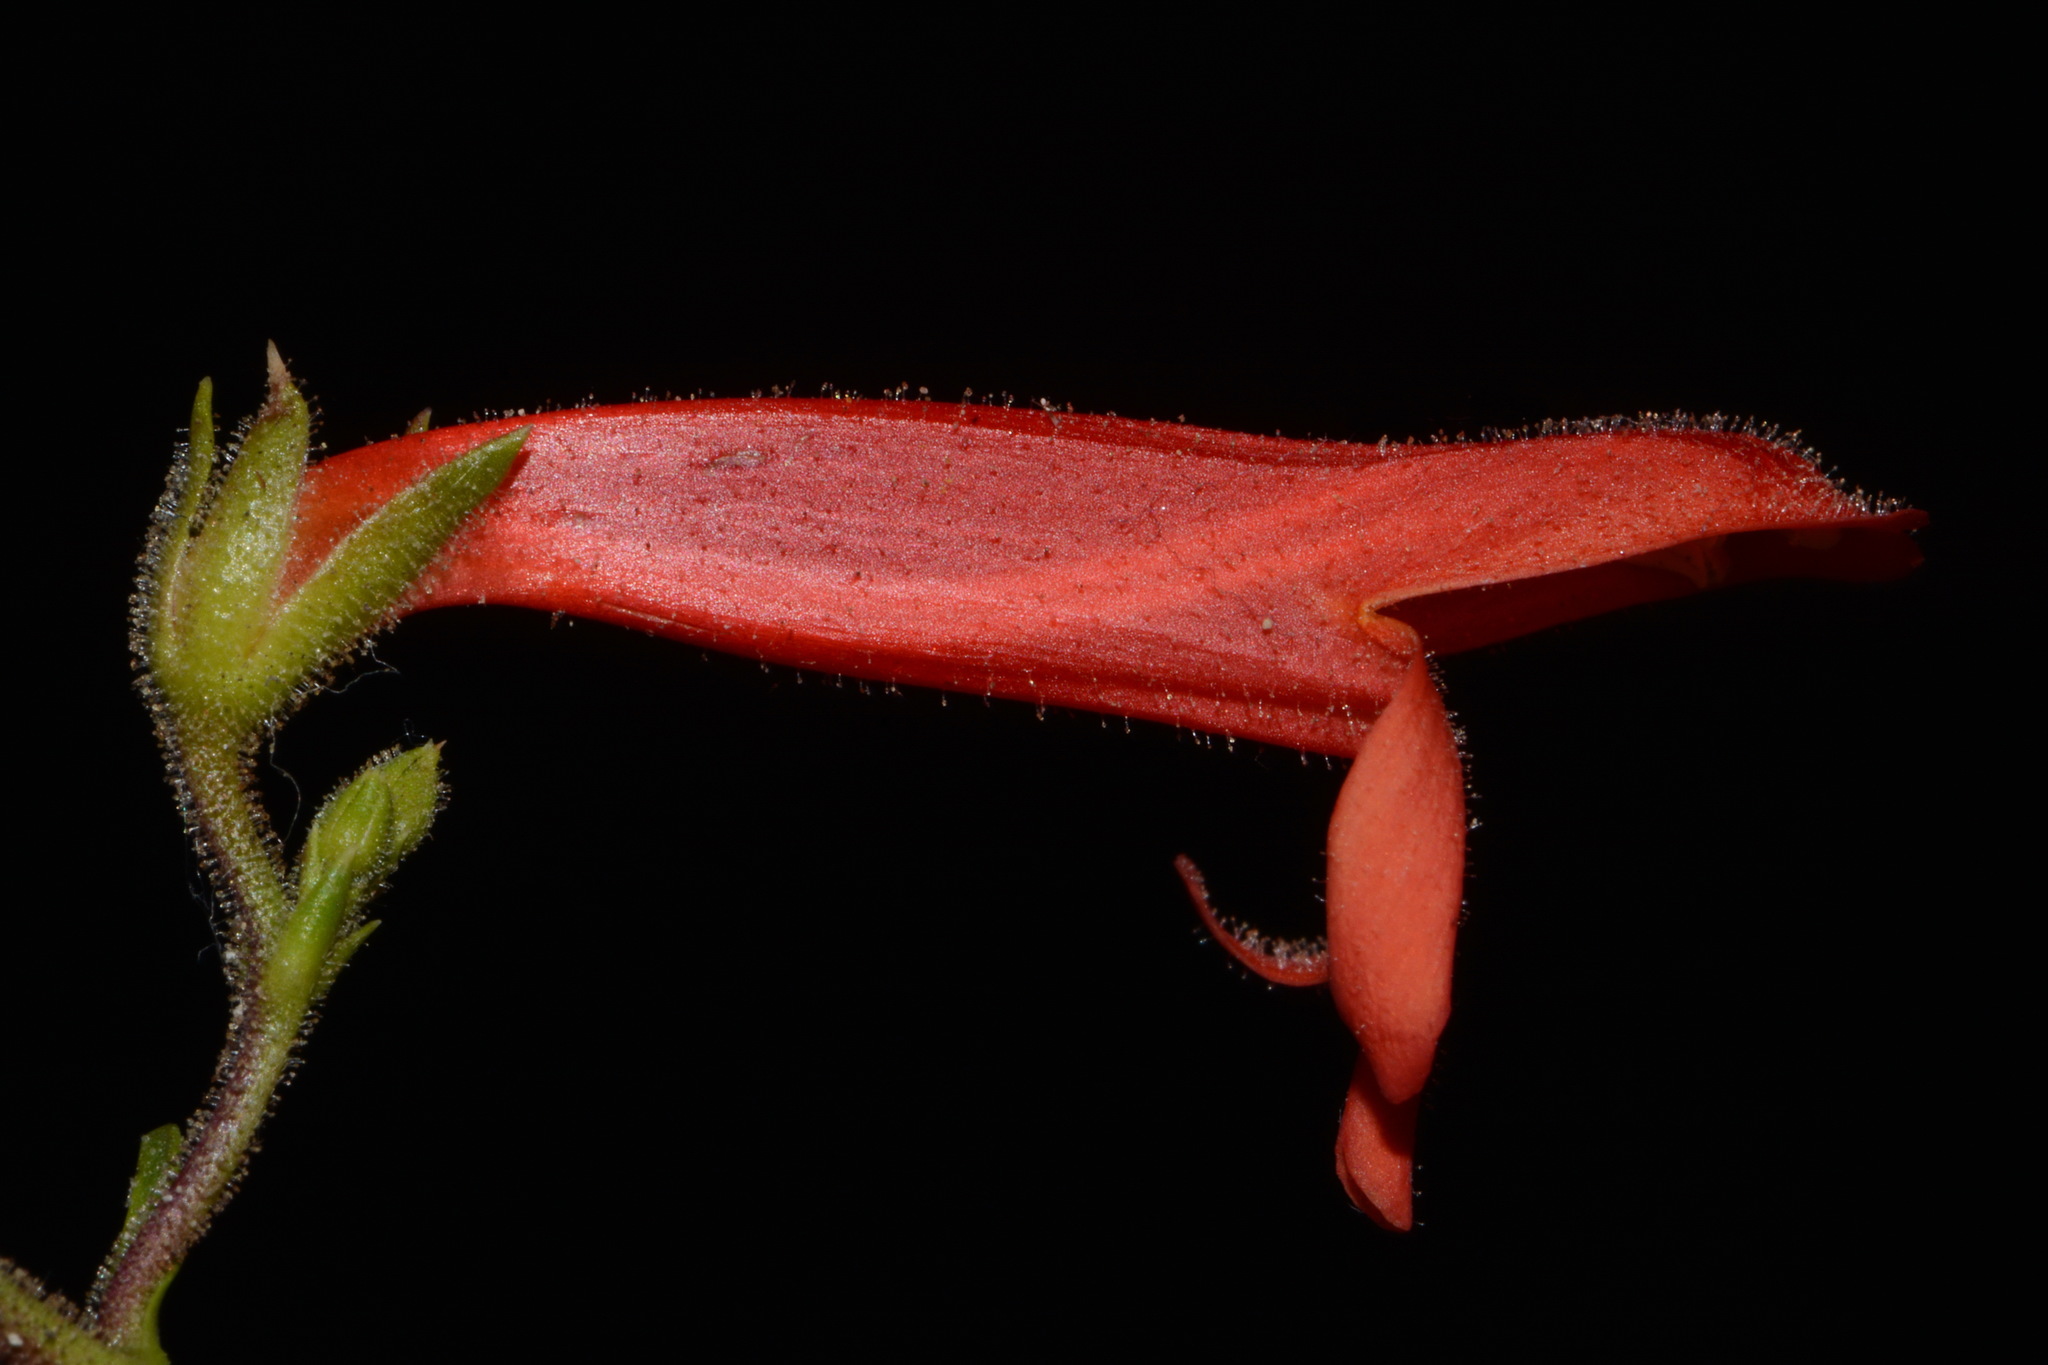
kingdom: Plantae
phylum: Tracheophyta
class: Magnoliopsida
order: Lamiales
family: Plantaginaceae
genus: Penstemon
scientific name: Penstemon rostriflorus
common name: Bridges's penstemon
